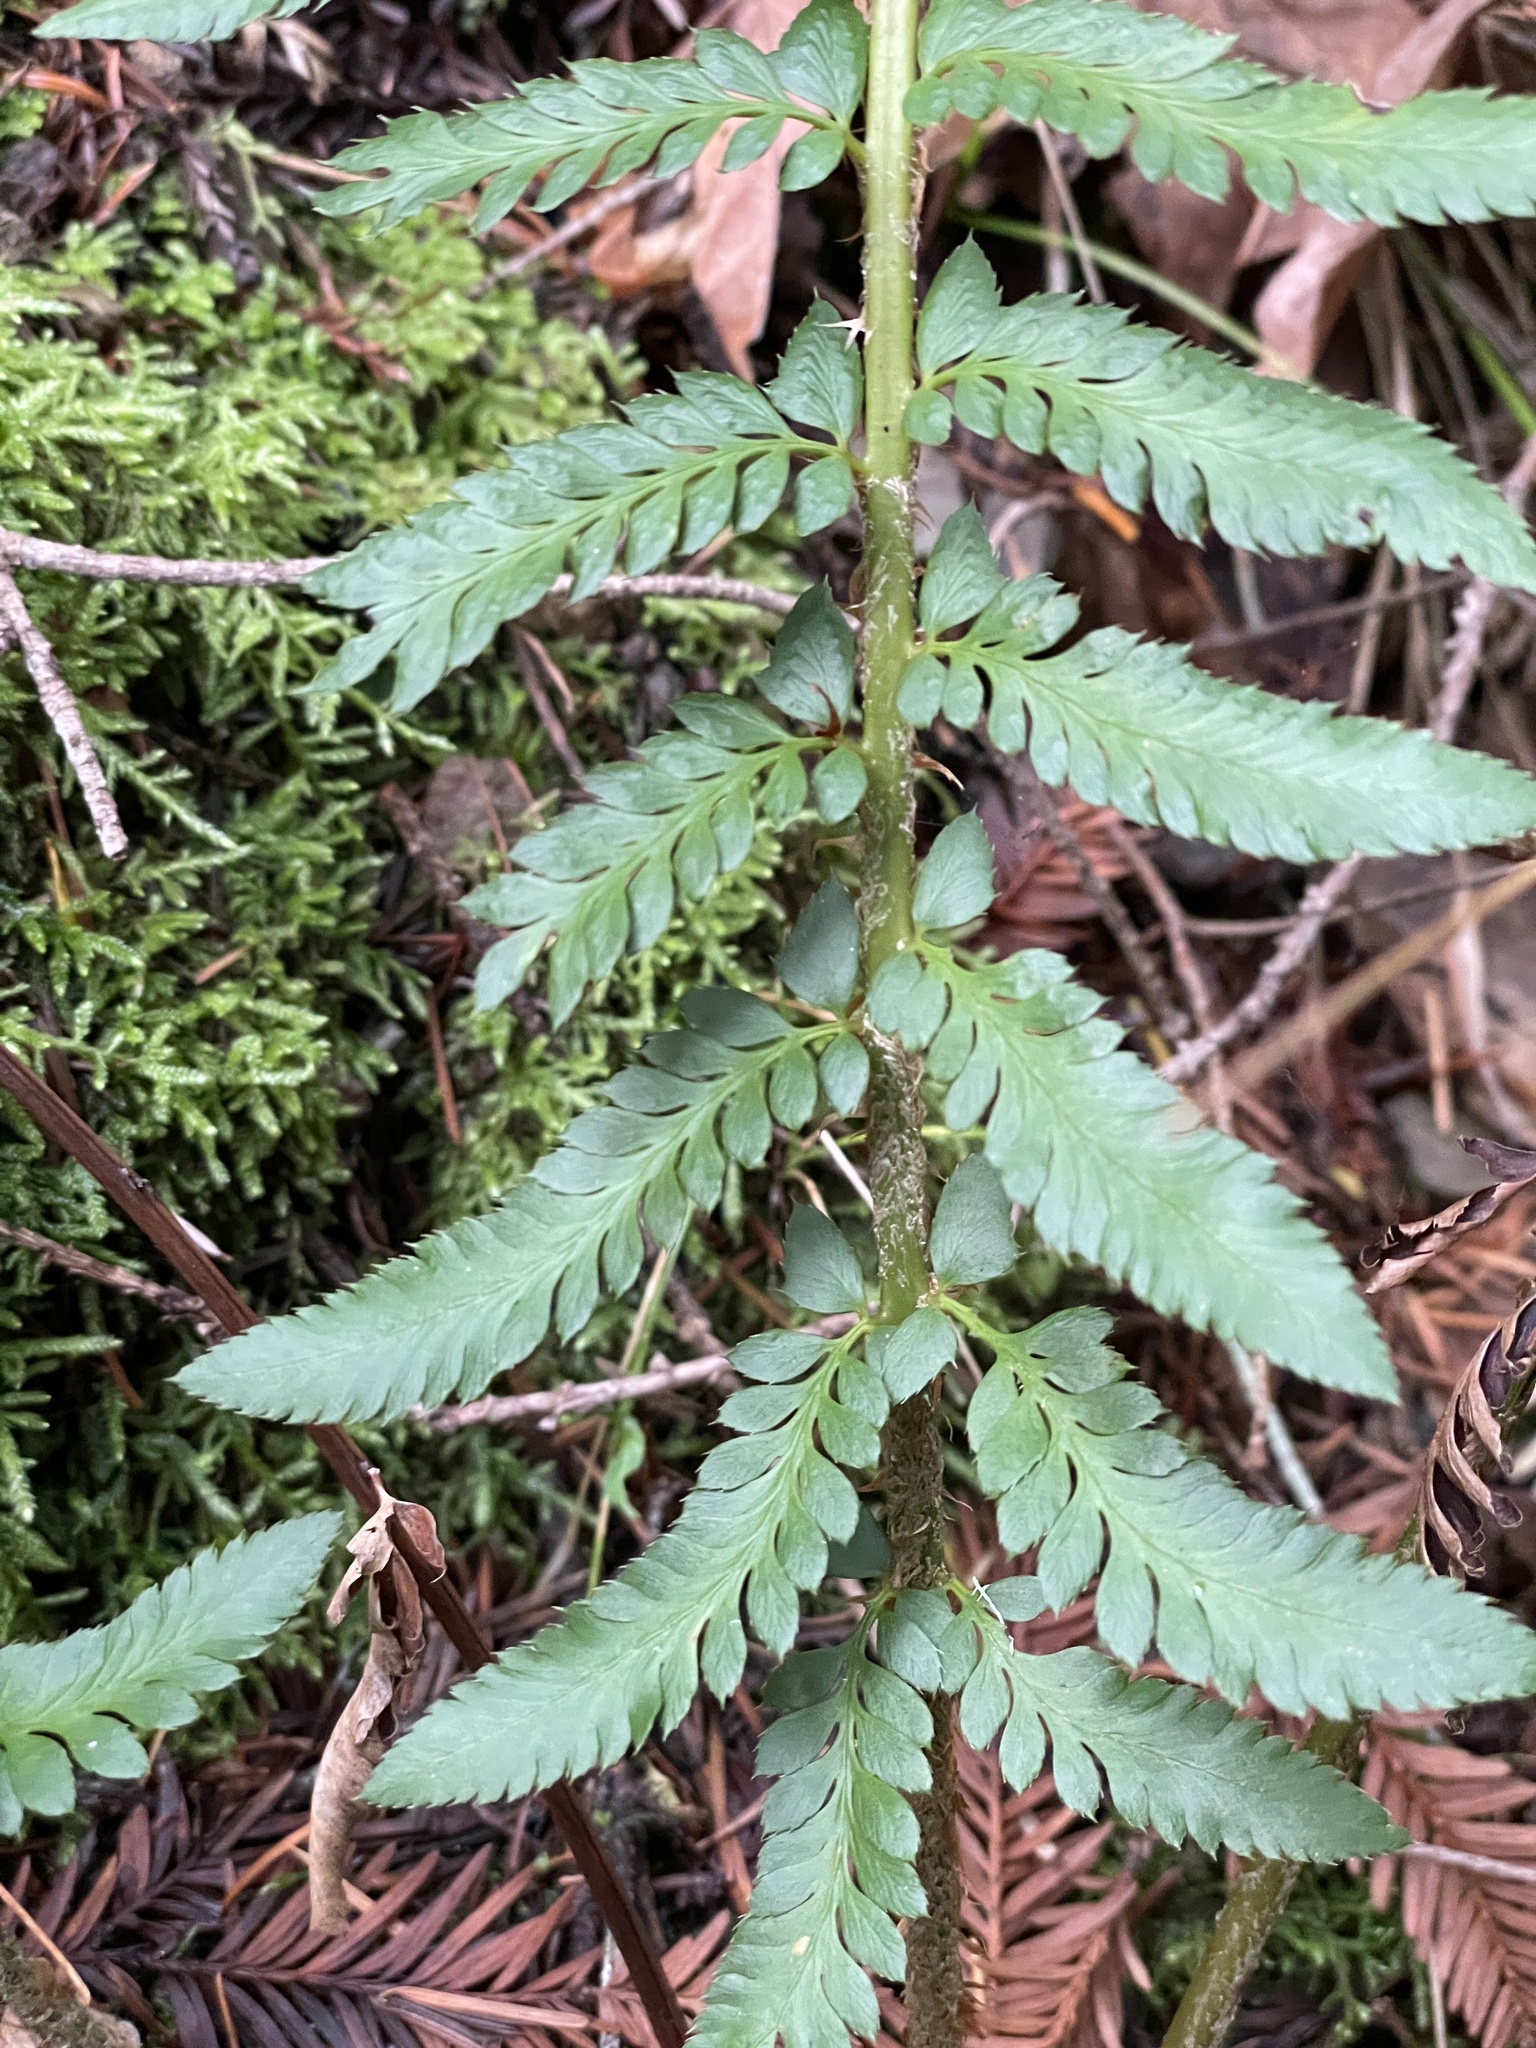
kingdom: Plantae
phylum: Tracheophyta
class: Polypodiopsida
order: Polypodiales
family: Dryopteridaceae
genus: Polystichum
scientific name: Polystichum californicum
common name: California sword fern
